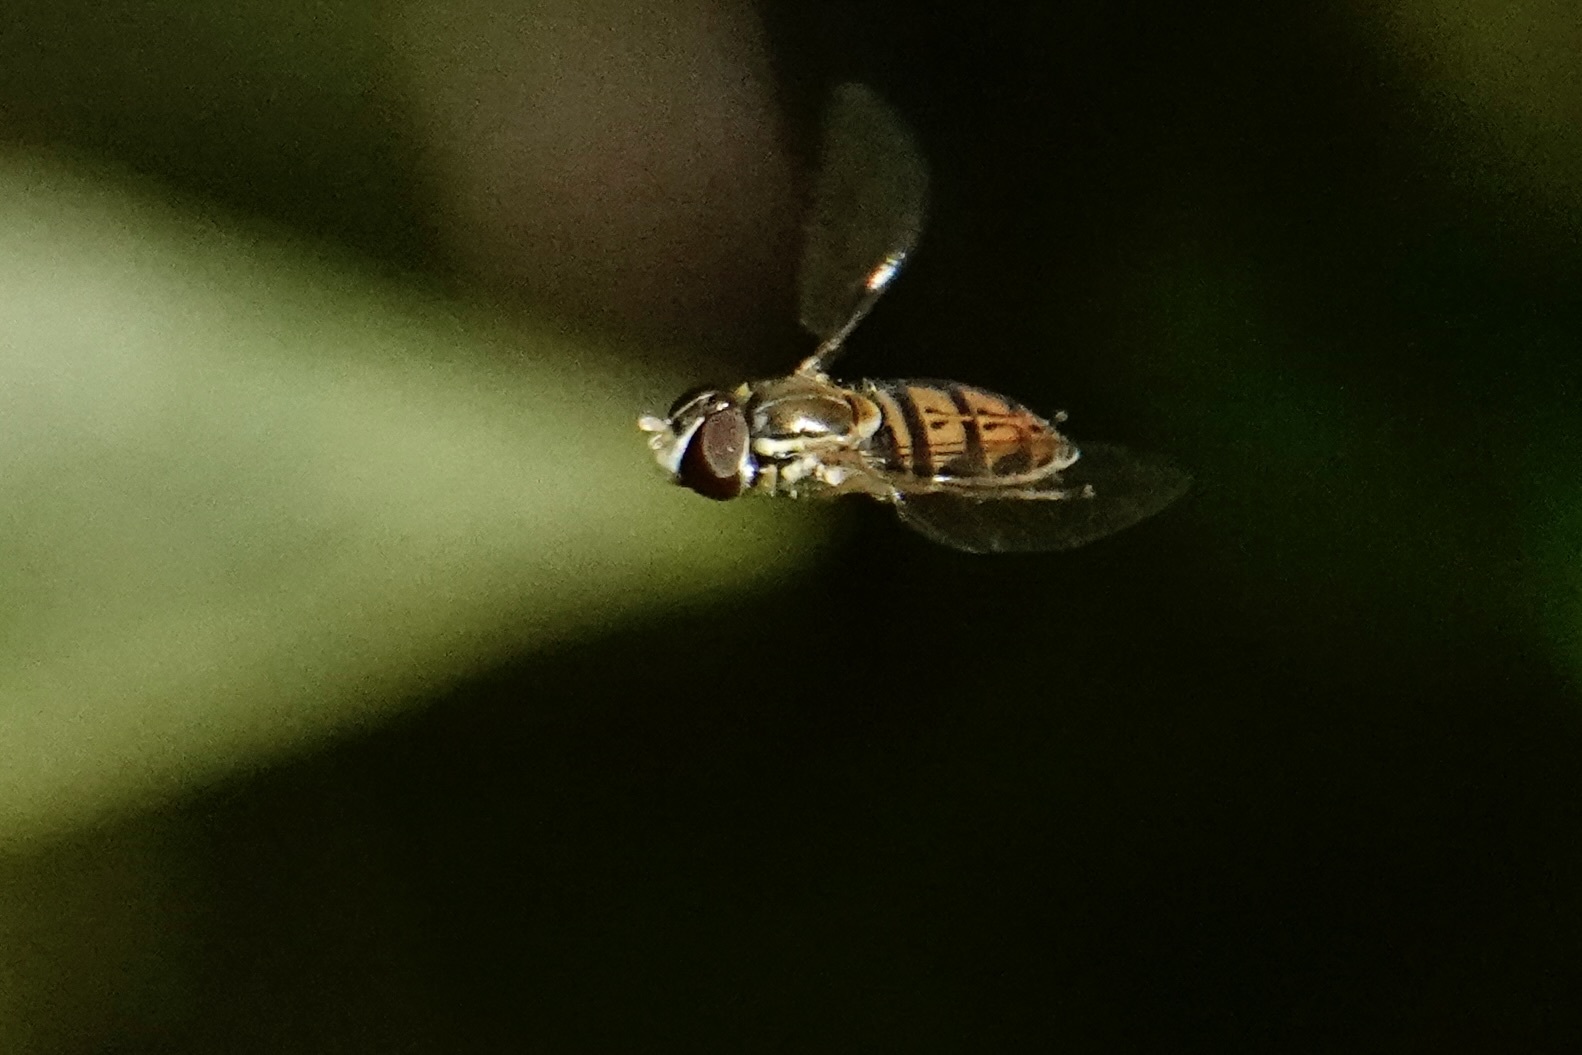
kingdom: Animalia
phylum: Arthropoda
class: Insecta
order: Diptera
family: Syrphidae
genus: Toxomerus
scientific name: Toxomerus marginatus
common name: Syrphid fly
